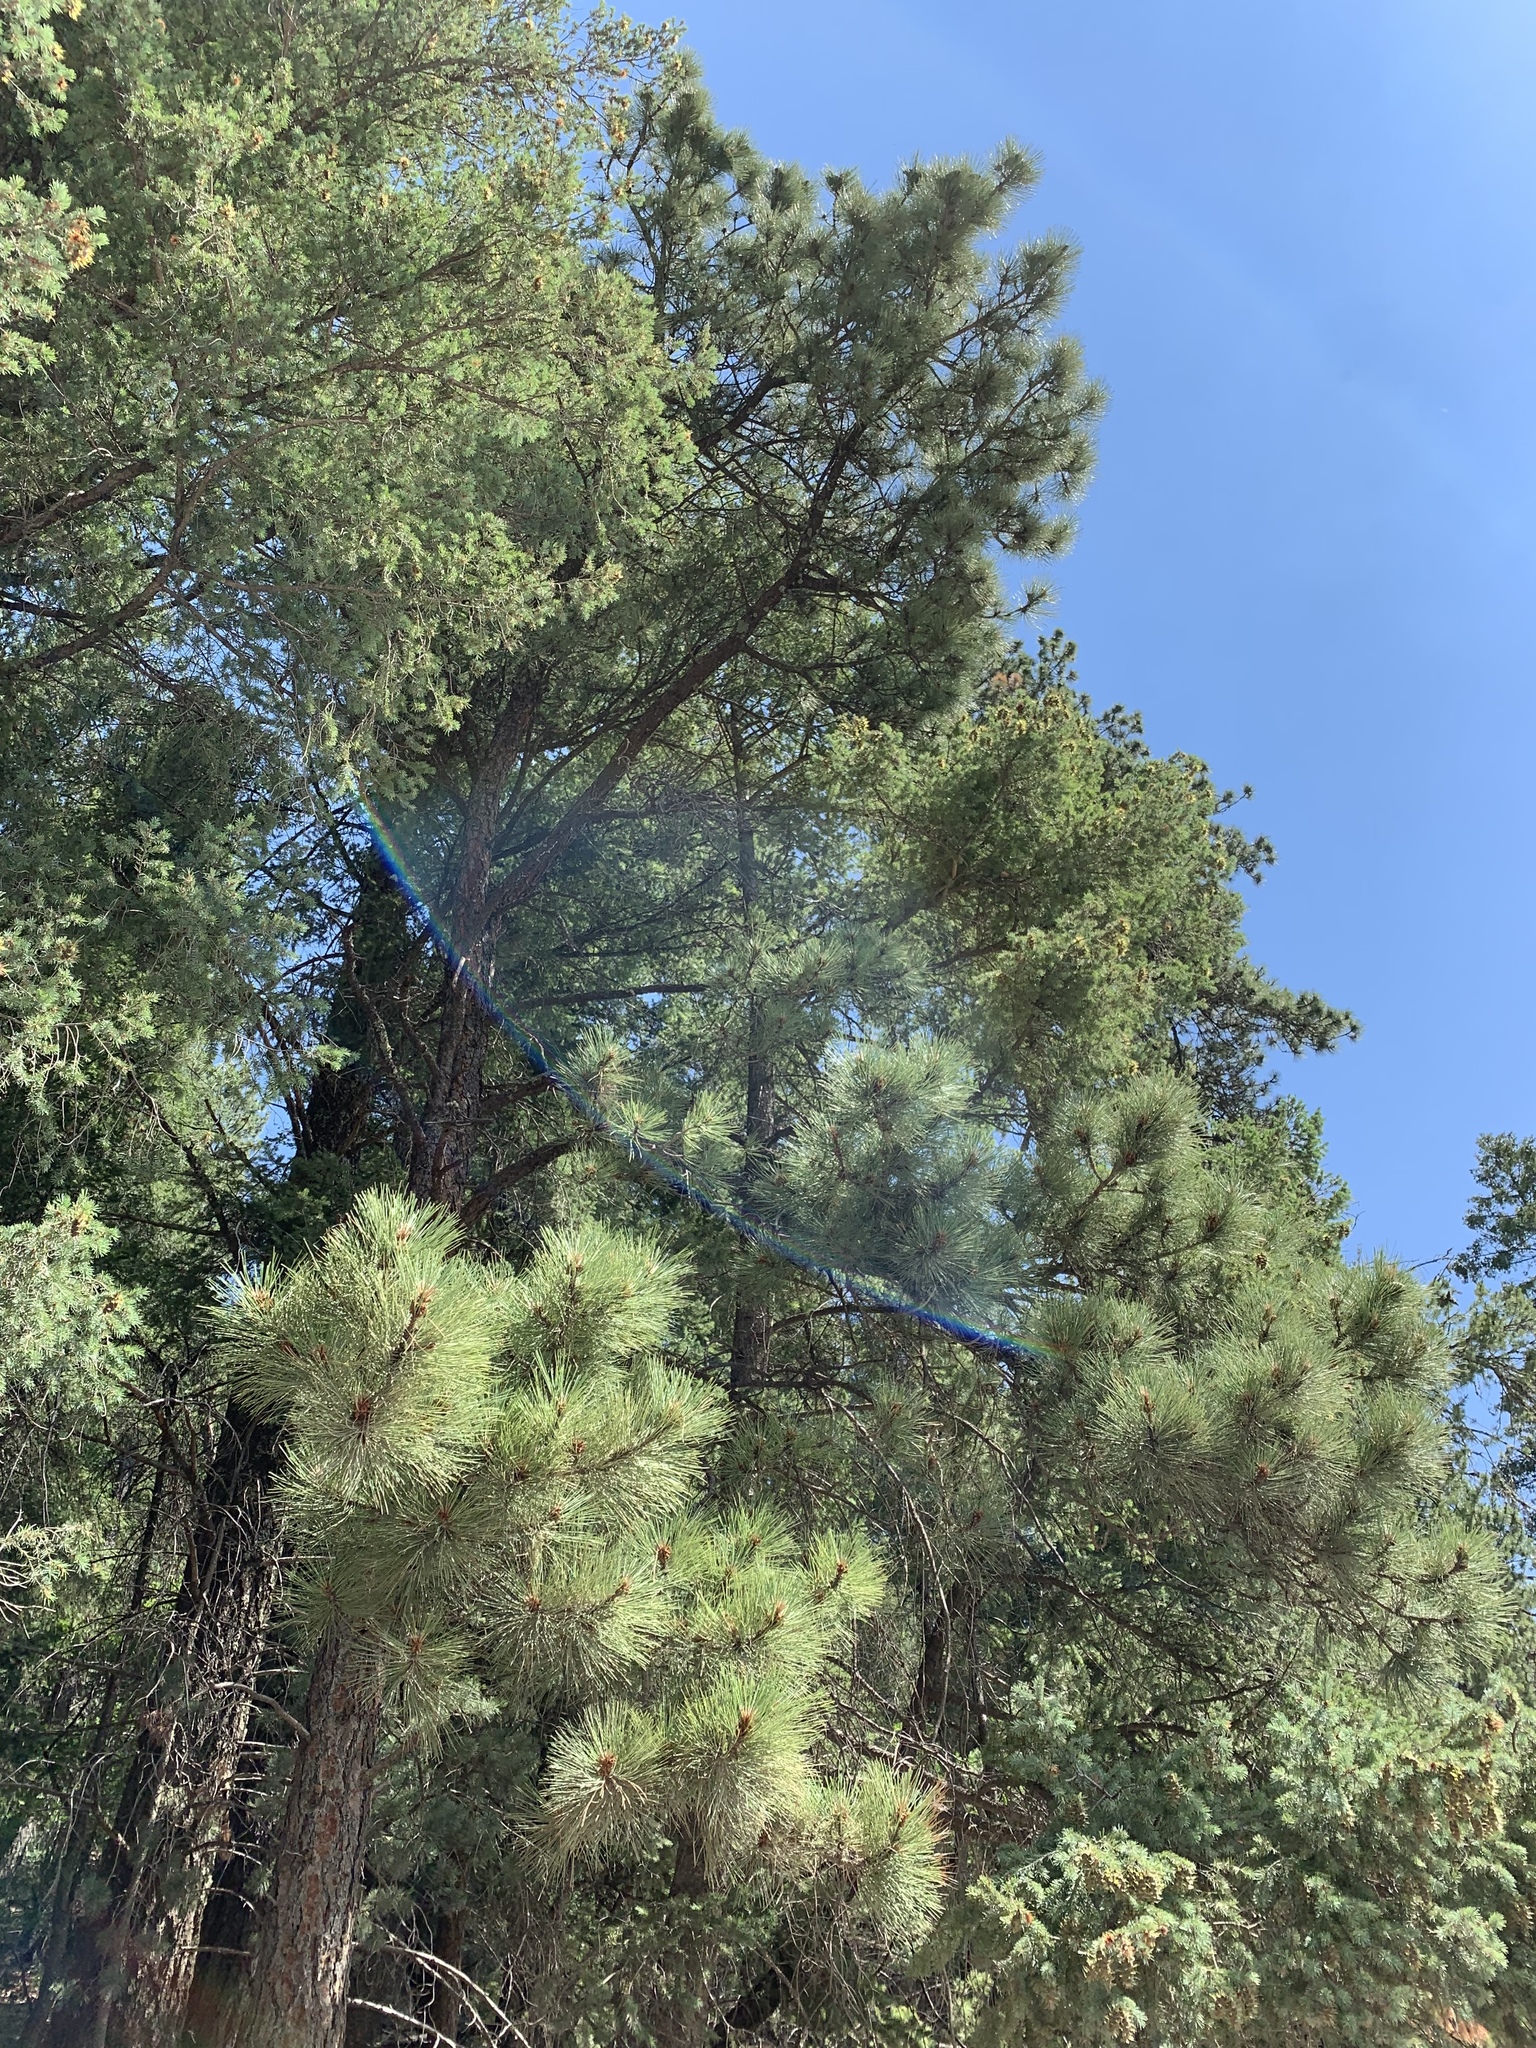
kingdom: Plantae
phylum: Tracheophyta
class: Pinopsida
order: Pinales
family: Pinaceae
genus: Pinus
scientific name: Pinus ponderosa
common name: Western yellow-pine
